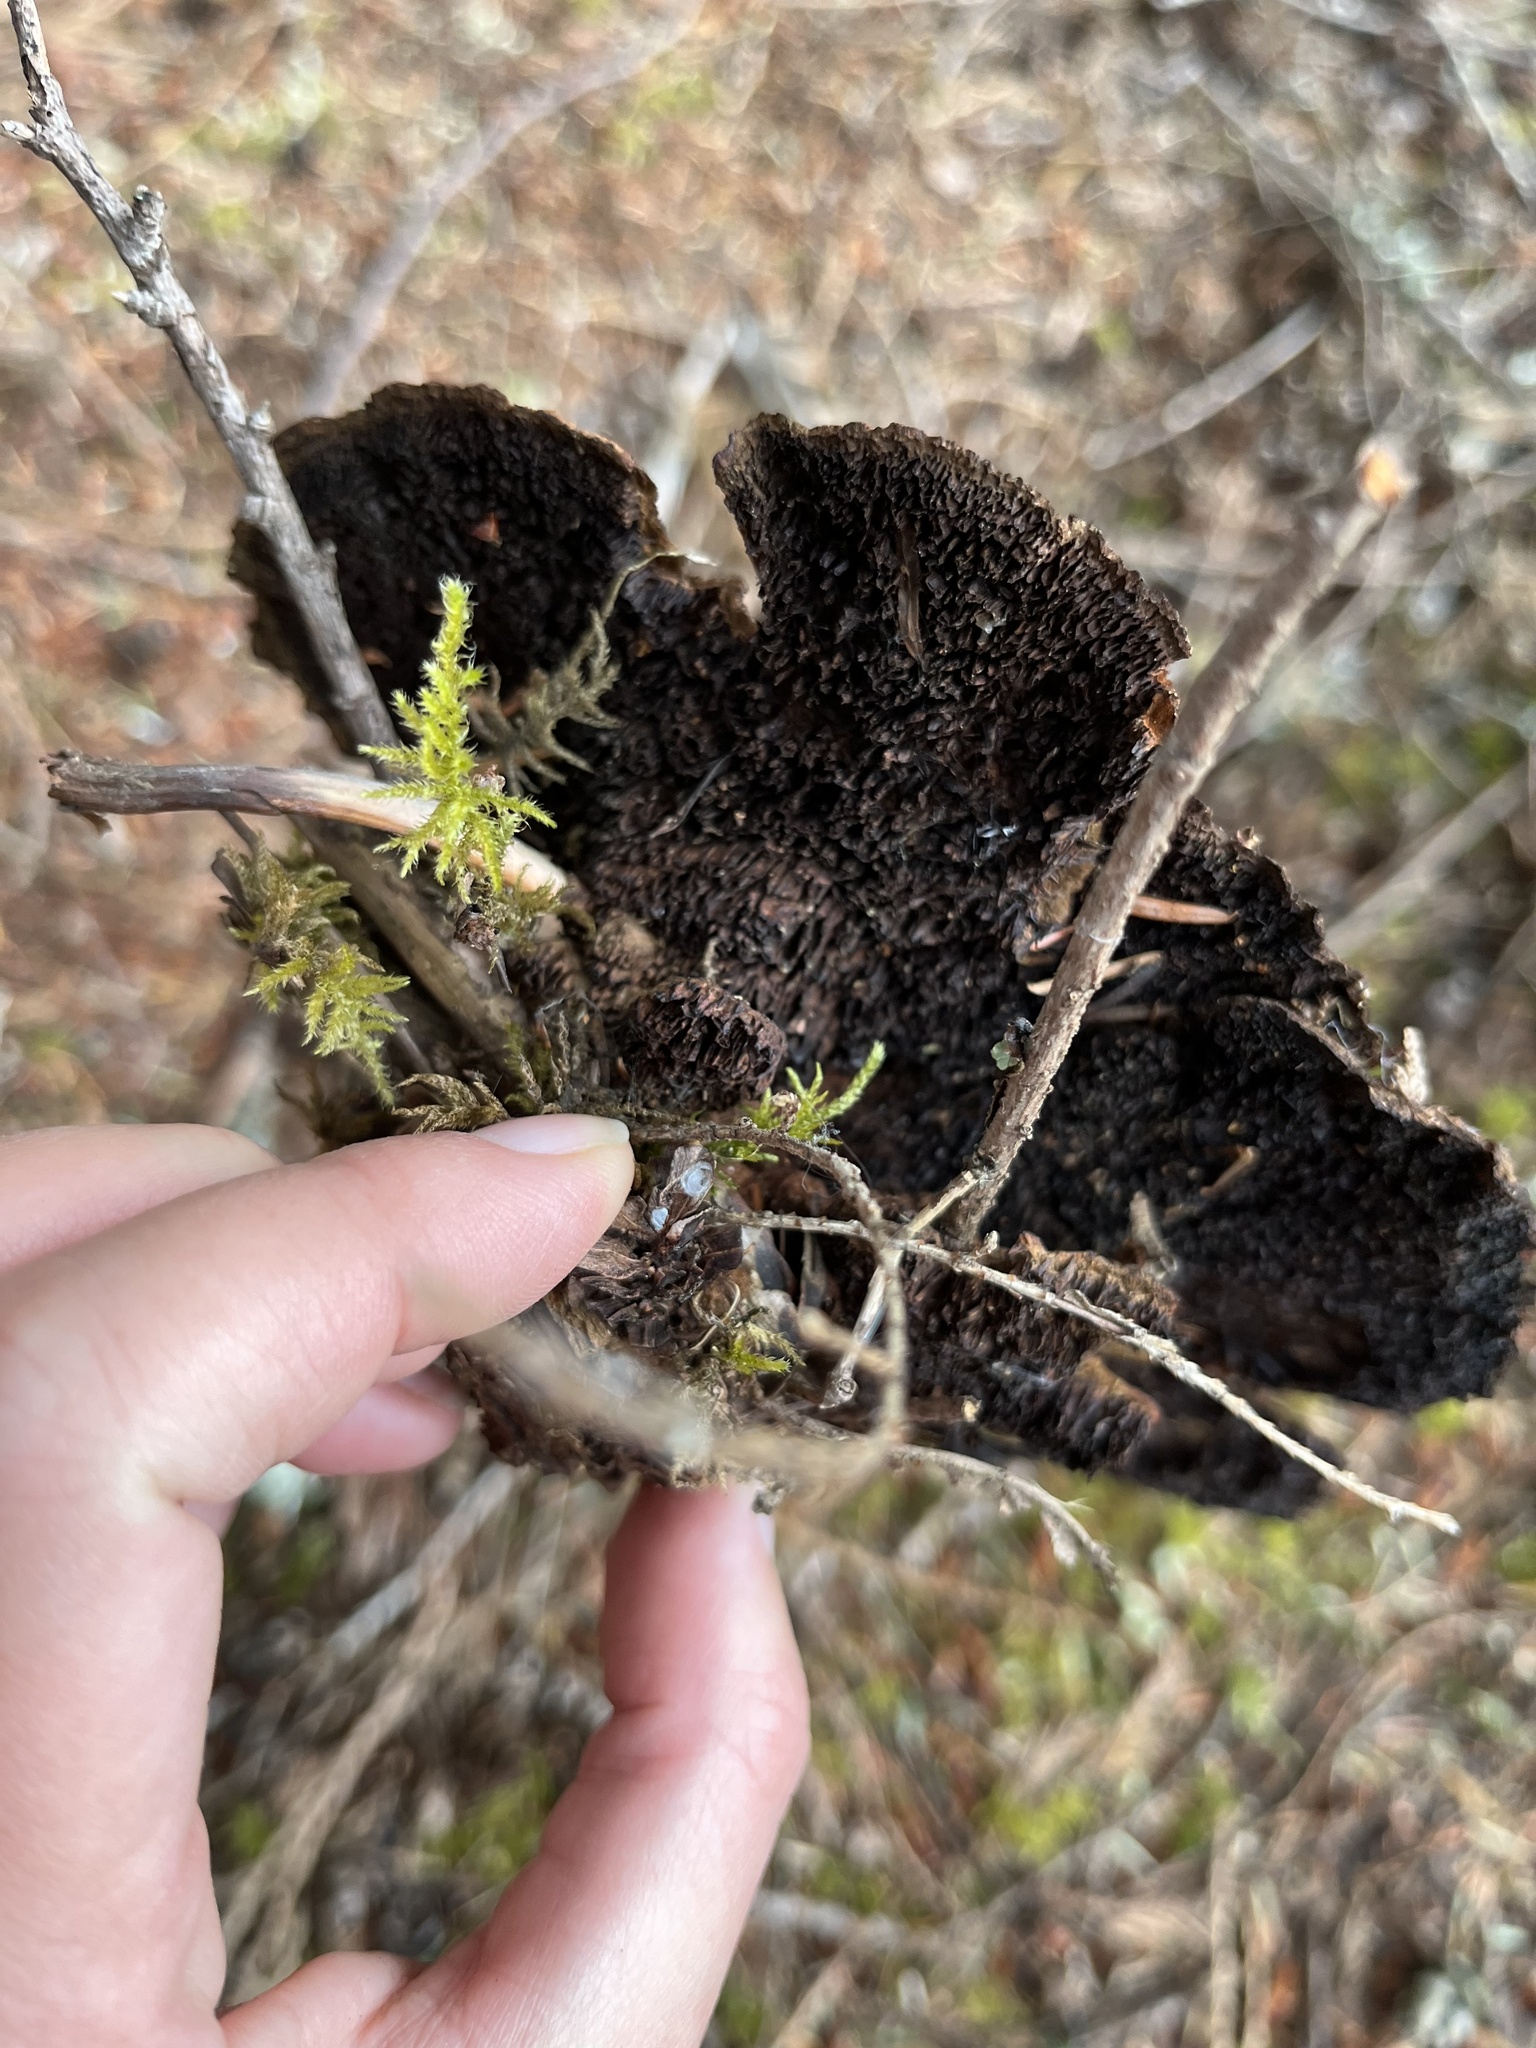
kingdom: Fungi
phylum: Basidiomycota
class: Agaricomycetes
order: Polyporales
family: Laetiporaceae
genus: Phaeolus
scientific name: Phaeolus schweinitzii
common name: Dyer's mazegill
